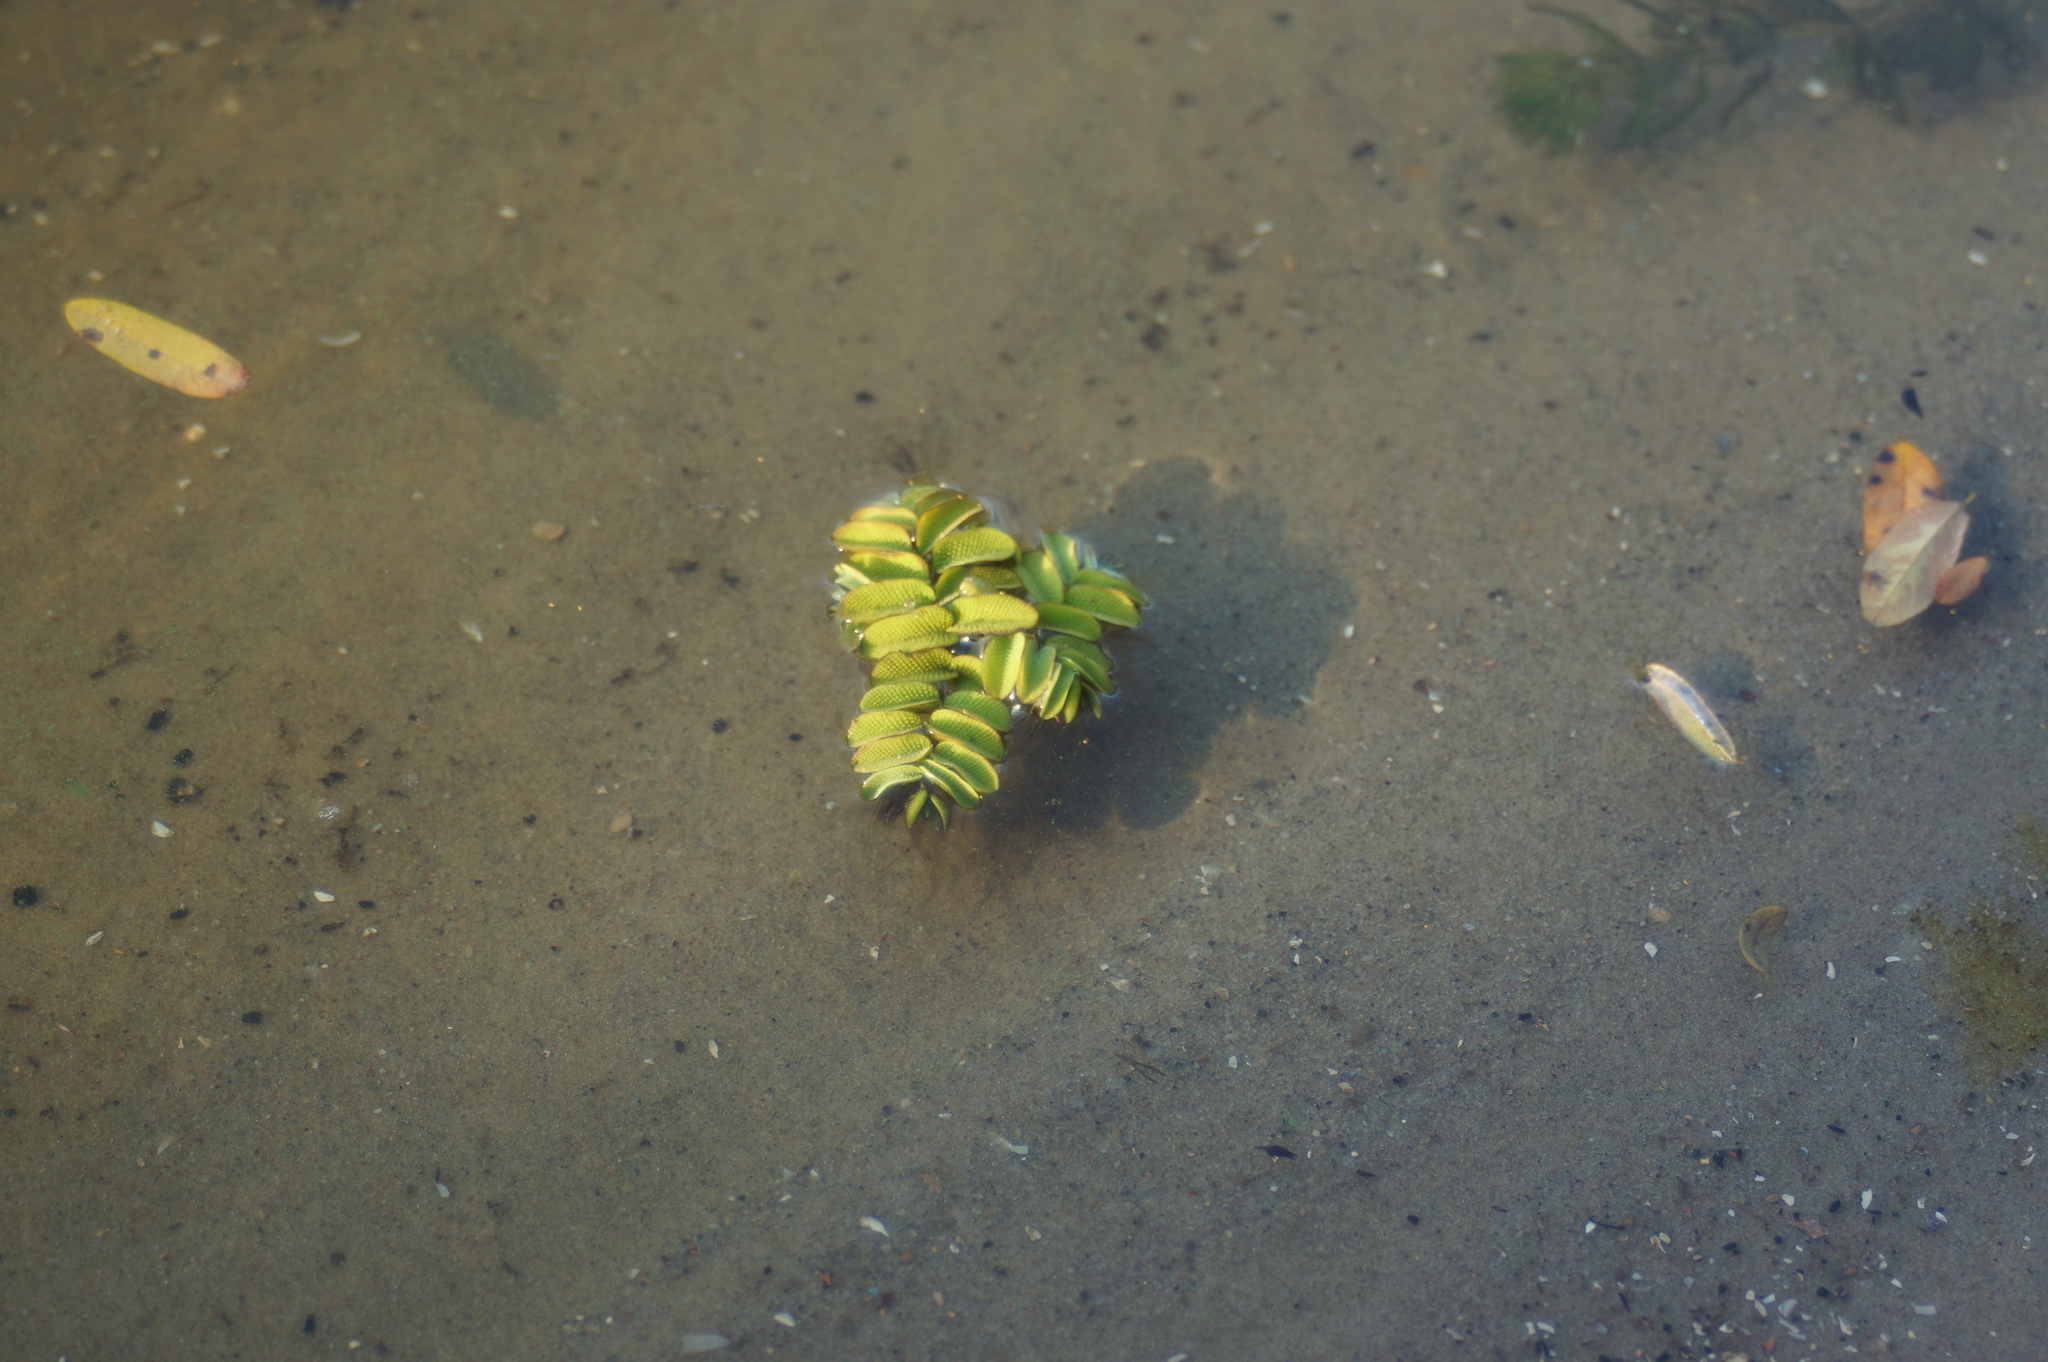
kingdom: Plantae
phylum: Tracheophyta
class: Polypodiopsida
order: Salviniales
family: Salviniaceae
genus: Salvinia
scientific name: Salvinia natans
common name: Floating fern
